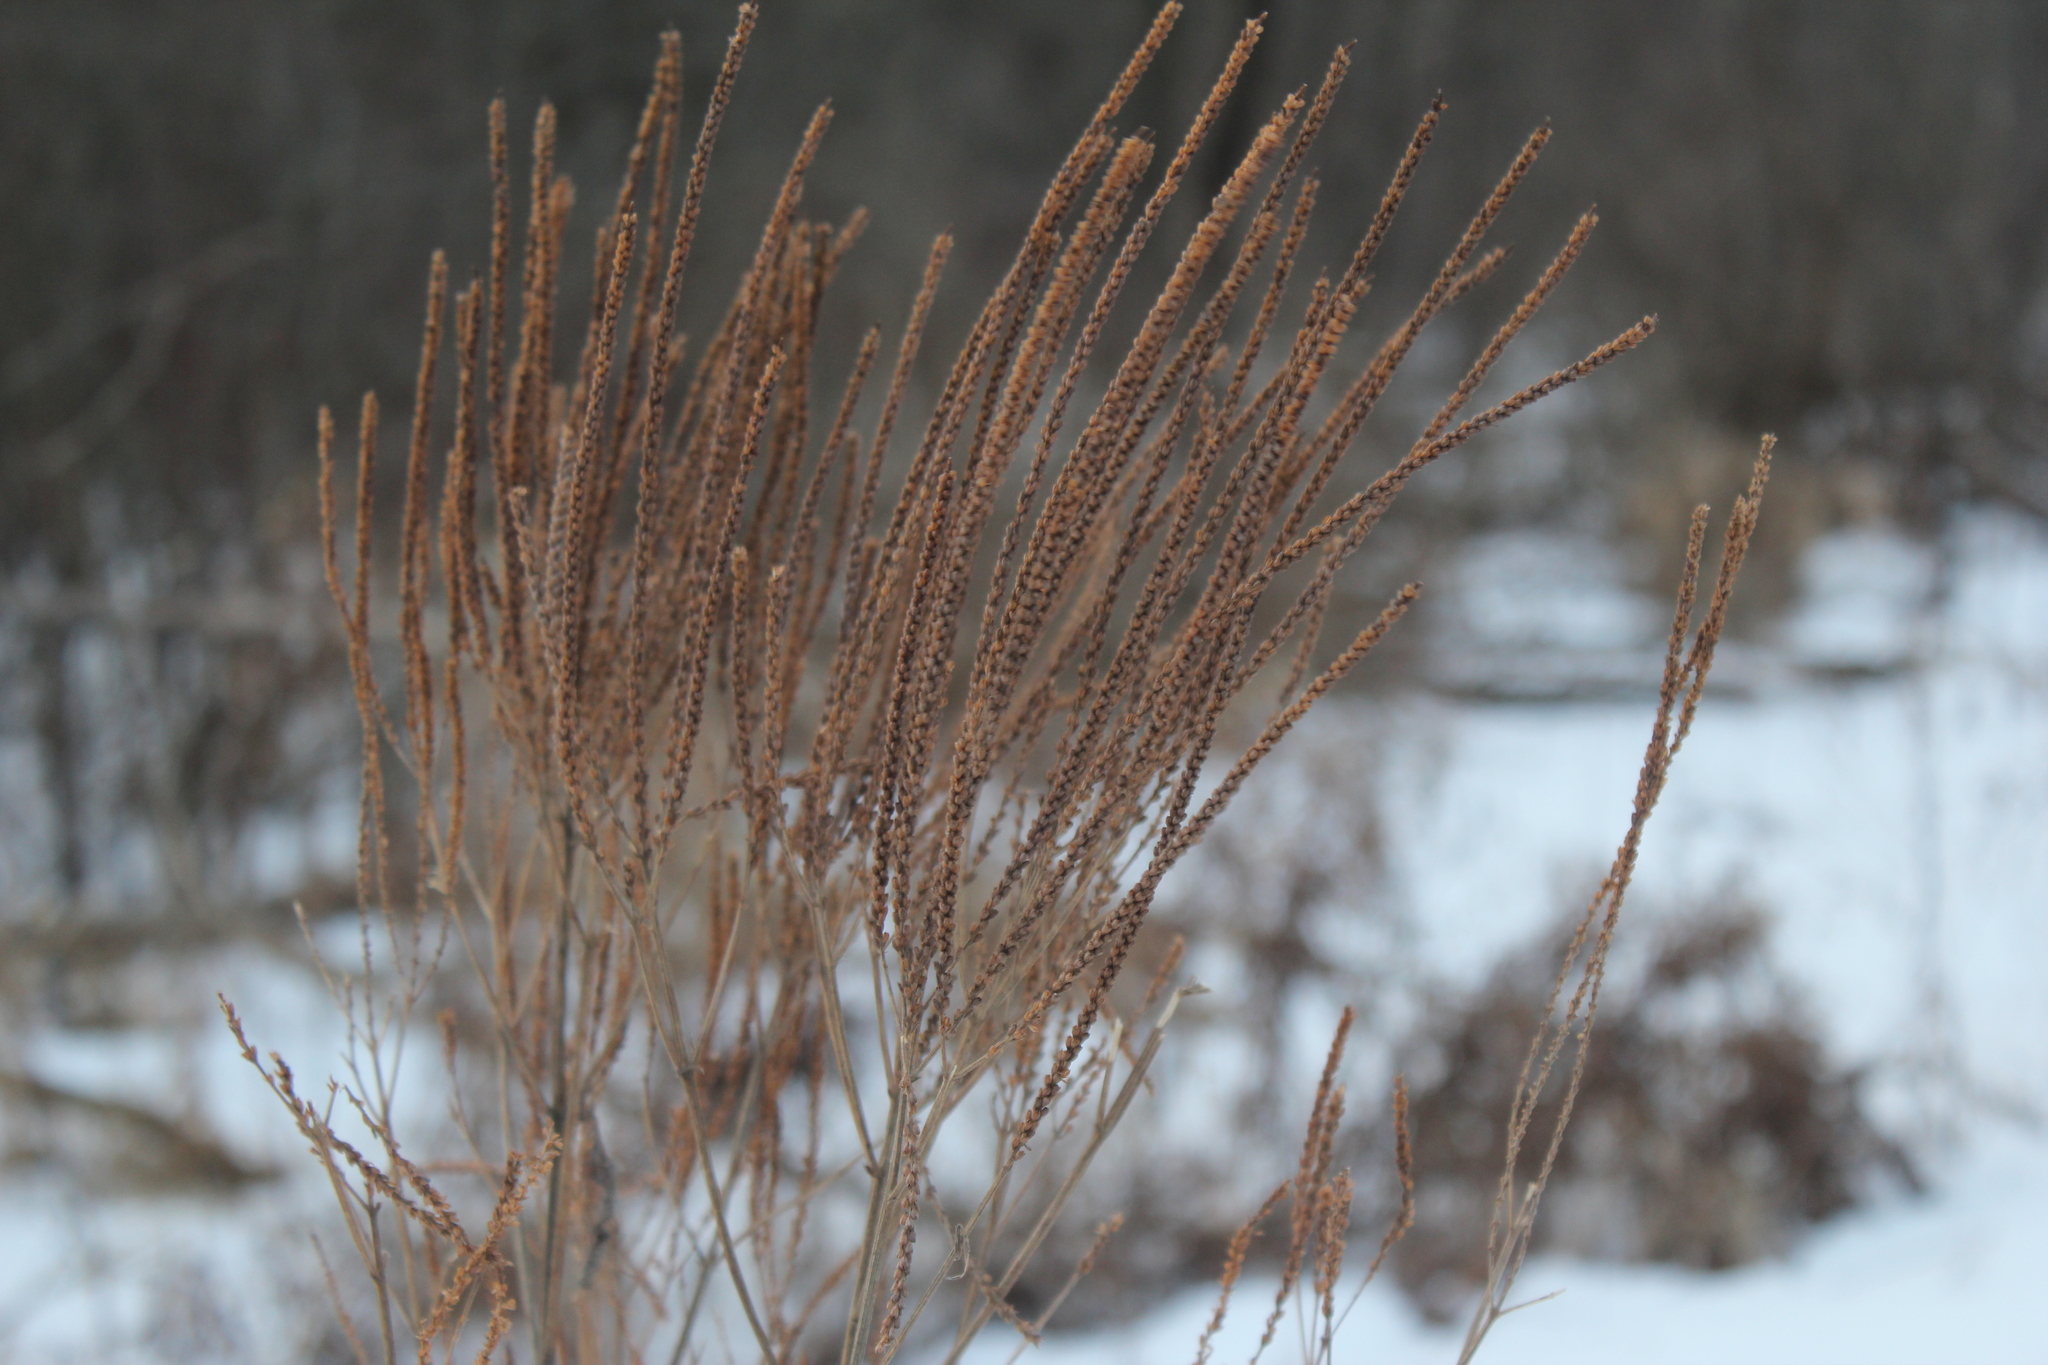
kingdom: Plantae
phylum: Tracheophyta
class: Magnoliopsida
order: Lamiales
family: Verbenaceae
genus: Verbena
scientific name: Verbena hastata
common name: American blue vervain
